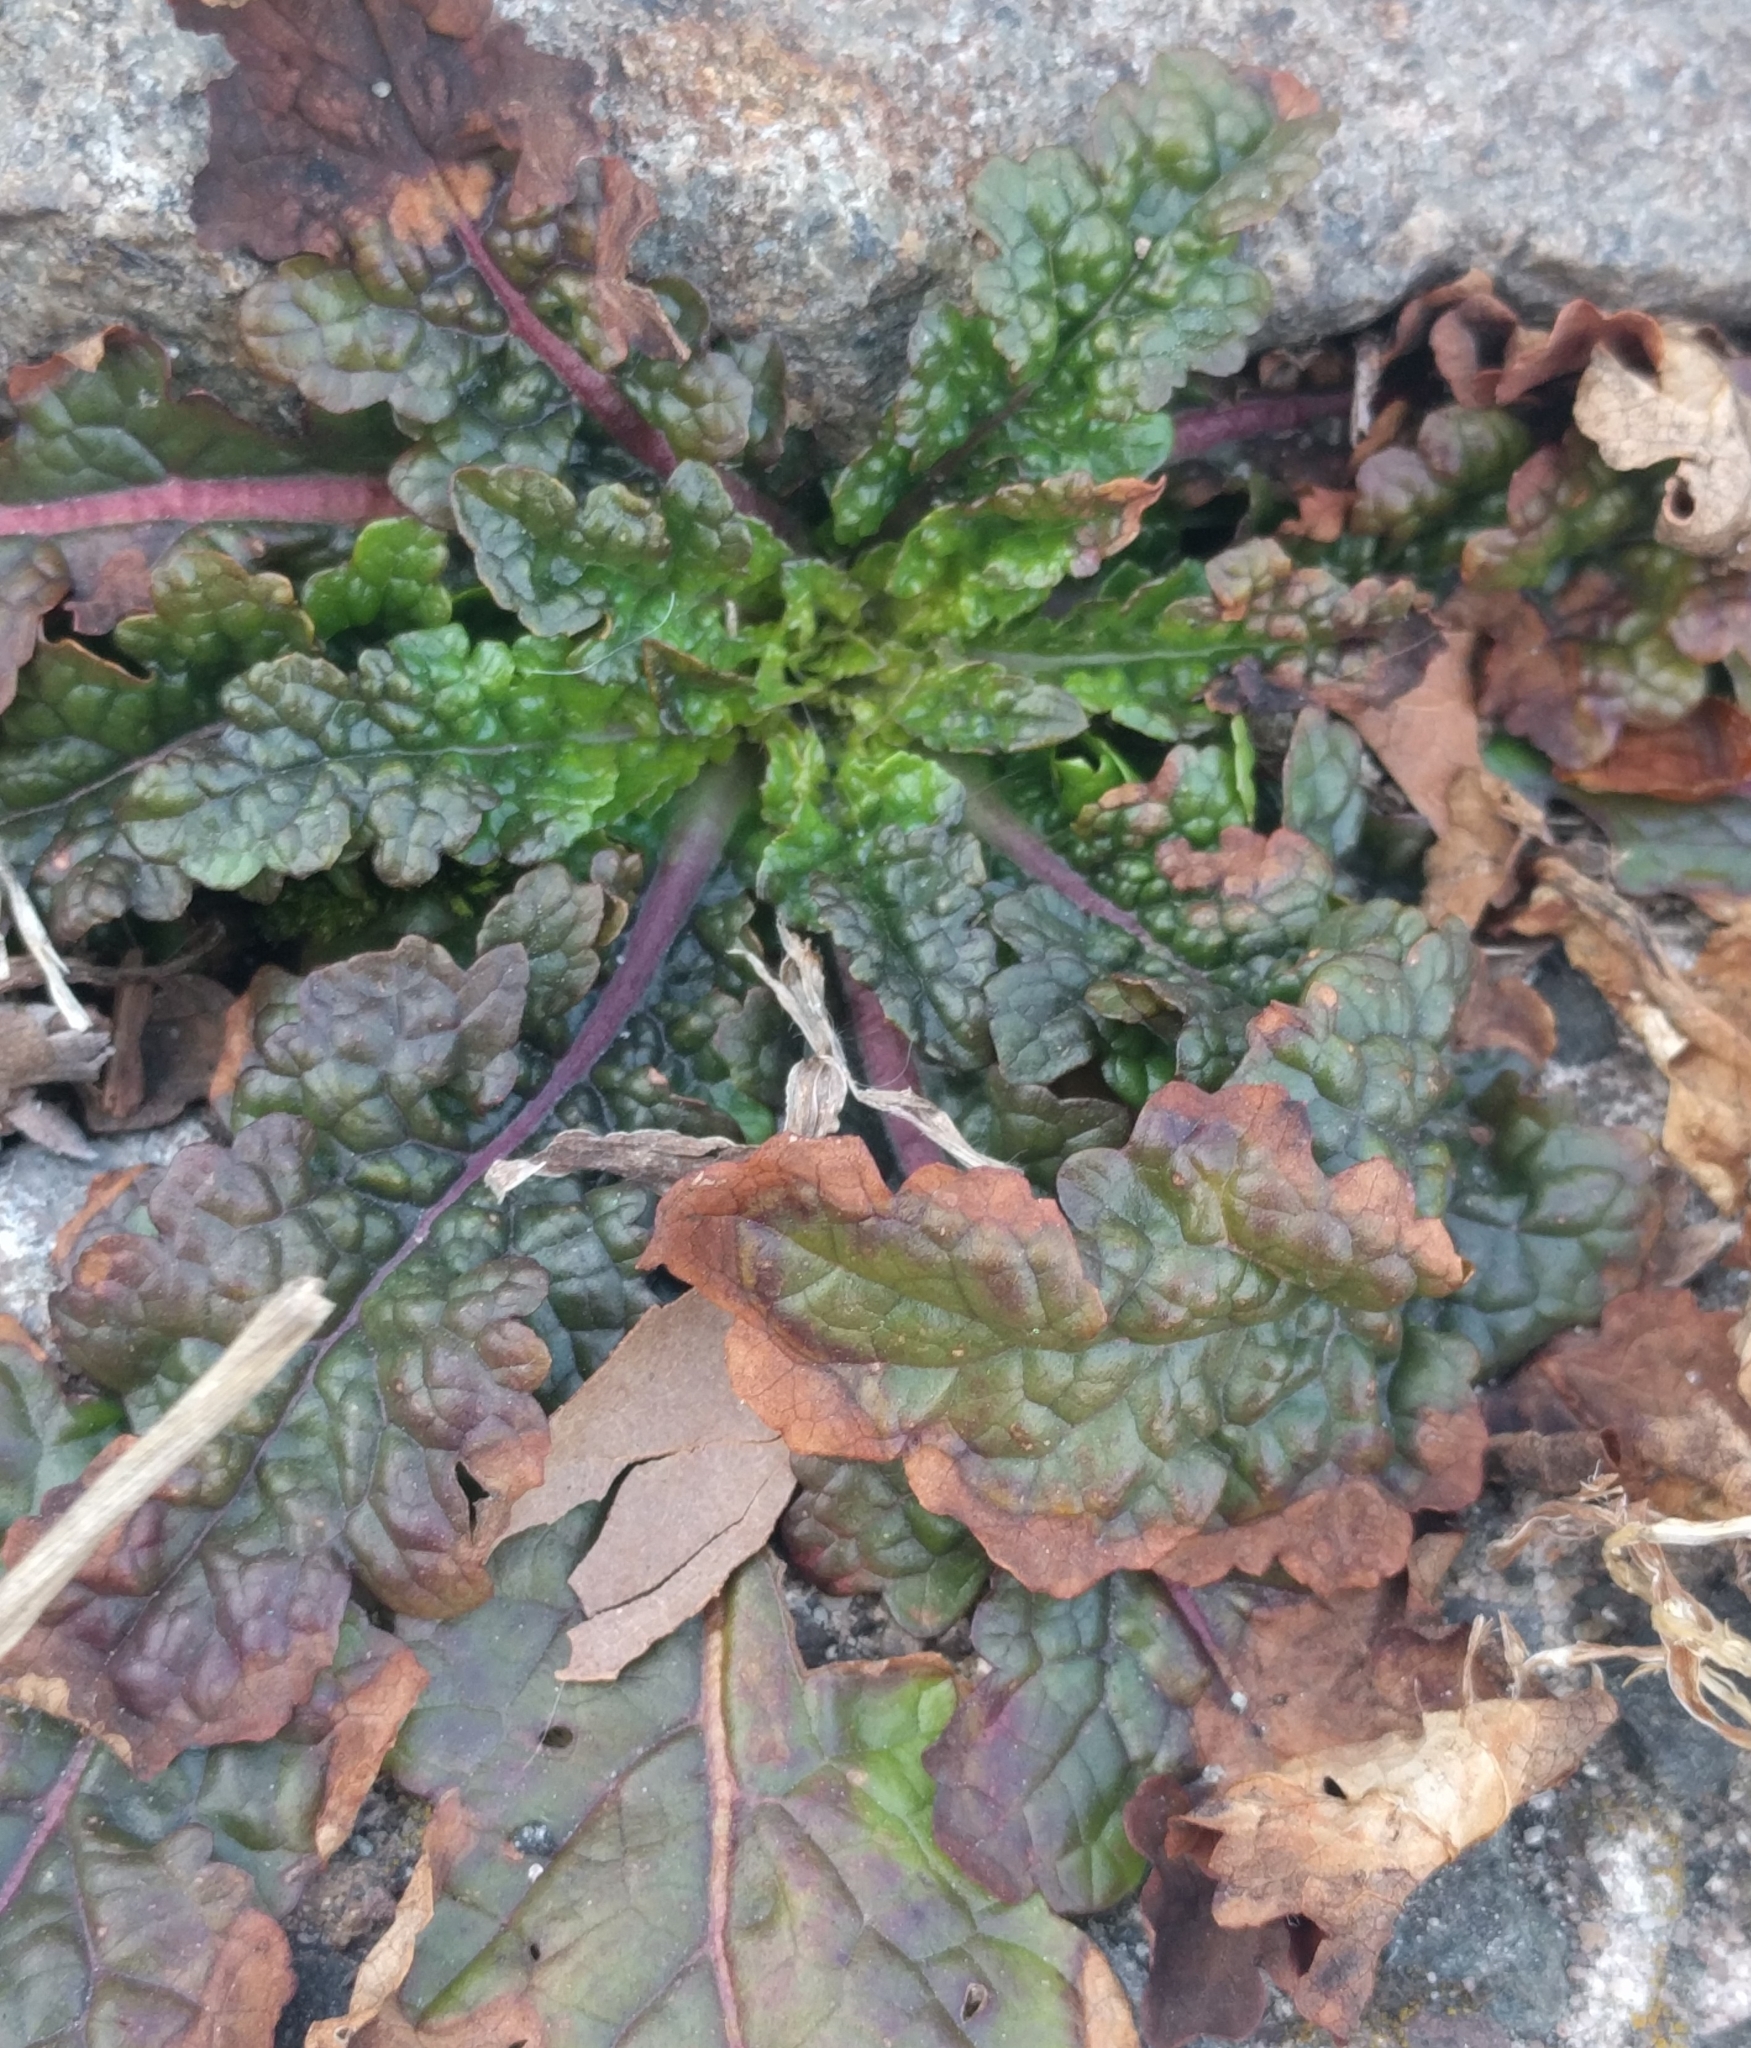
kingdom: Plantae
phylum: Tracheophyta
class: Magnoliopsida
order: Lamiales
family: Scrophulariaceae
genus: Verbascum
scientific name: Verbascum blattaria
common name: Moth mullein
